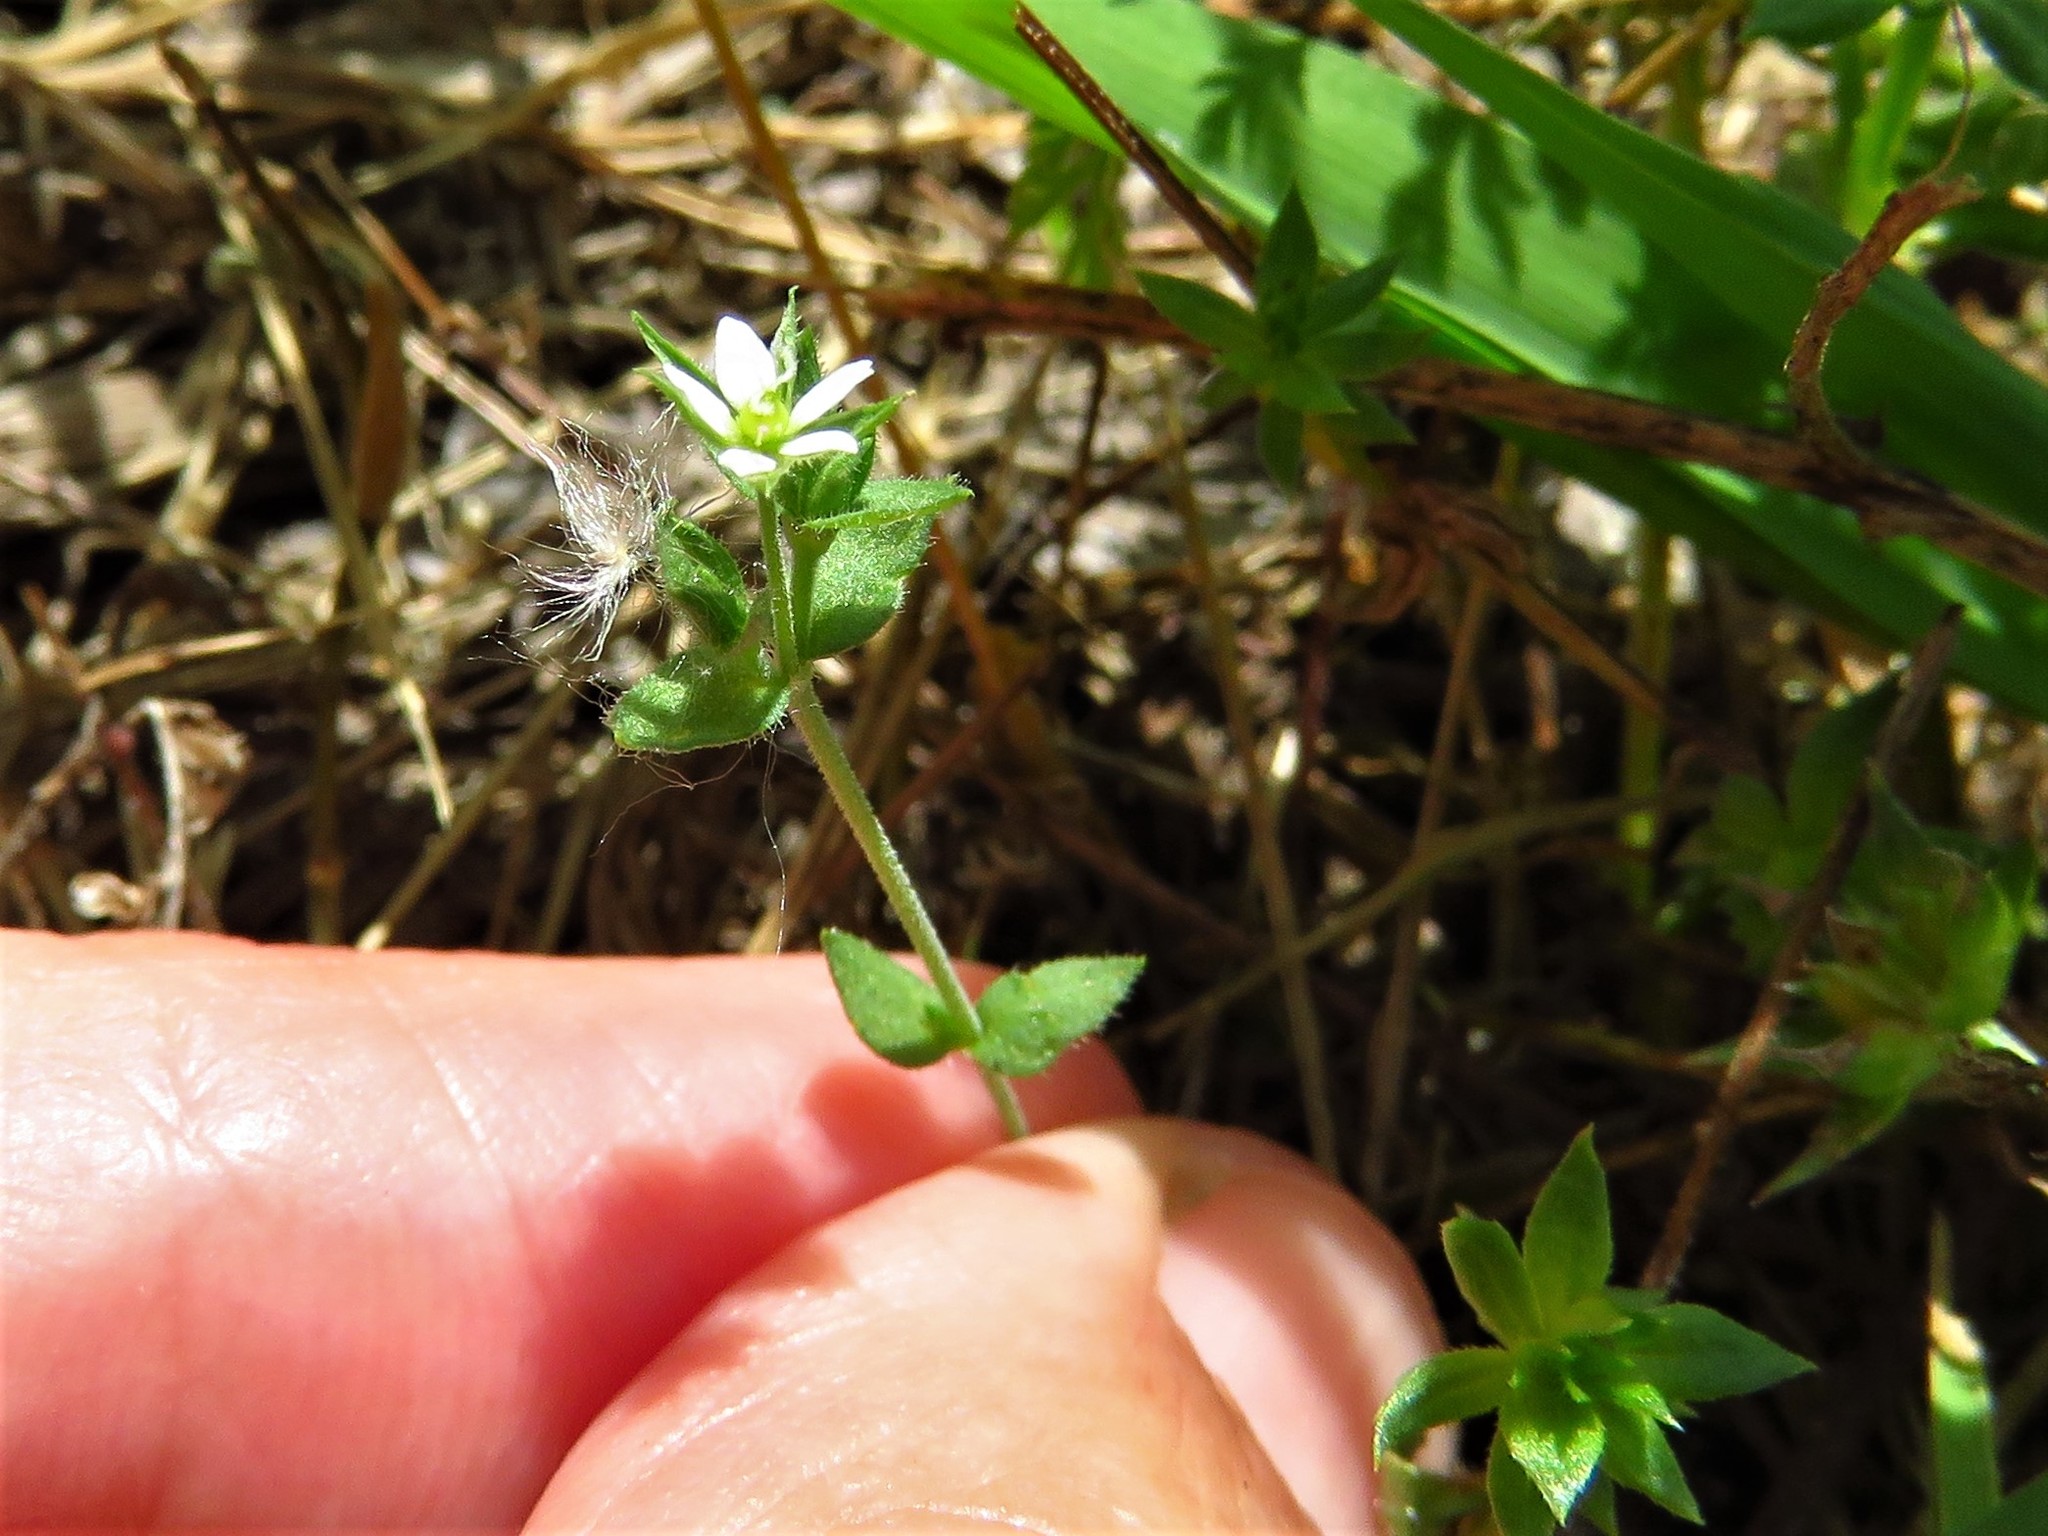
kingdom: Plantae
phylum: Tracheophyta
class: Magnoliopsida
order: Caryophyllales
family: Caryophyllaceae
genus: Arenaria
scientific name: Arenaria serpyllifolia
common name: Thyme-leaved sandwort
